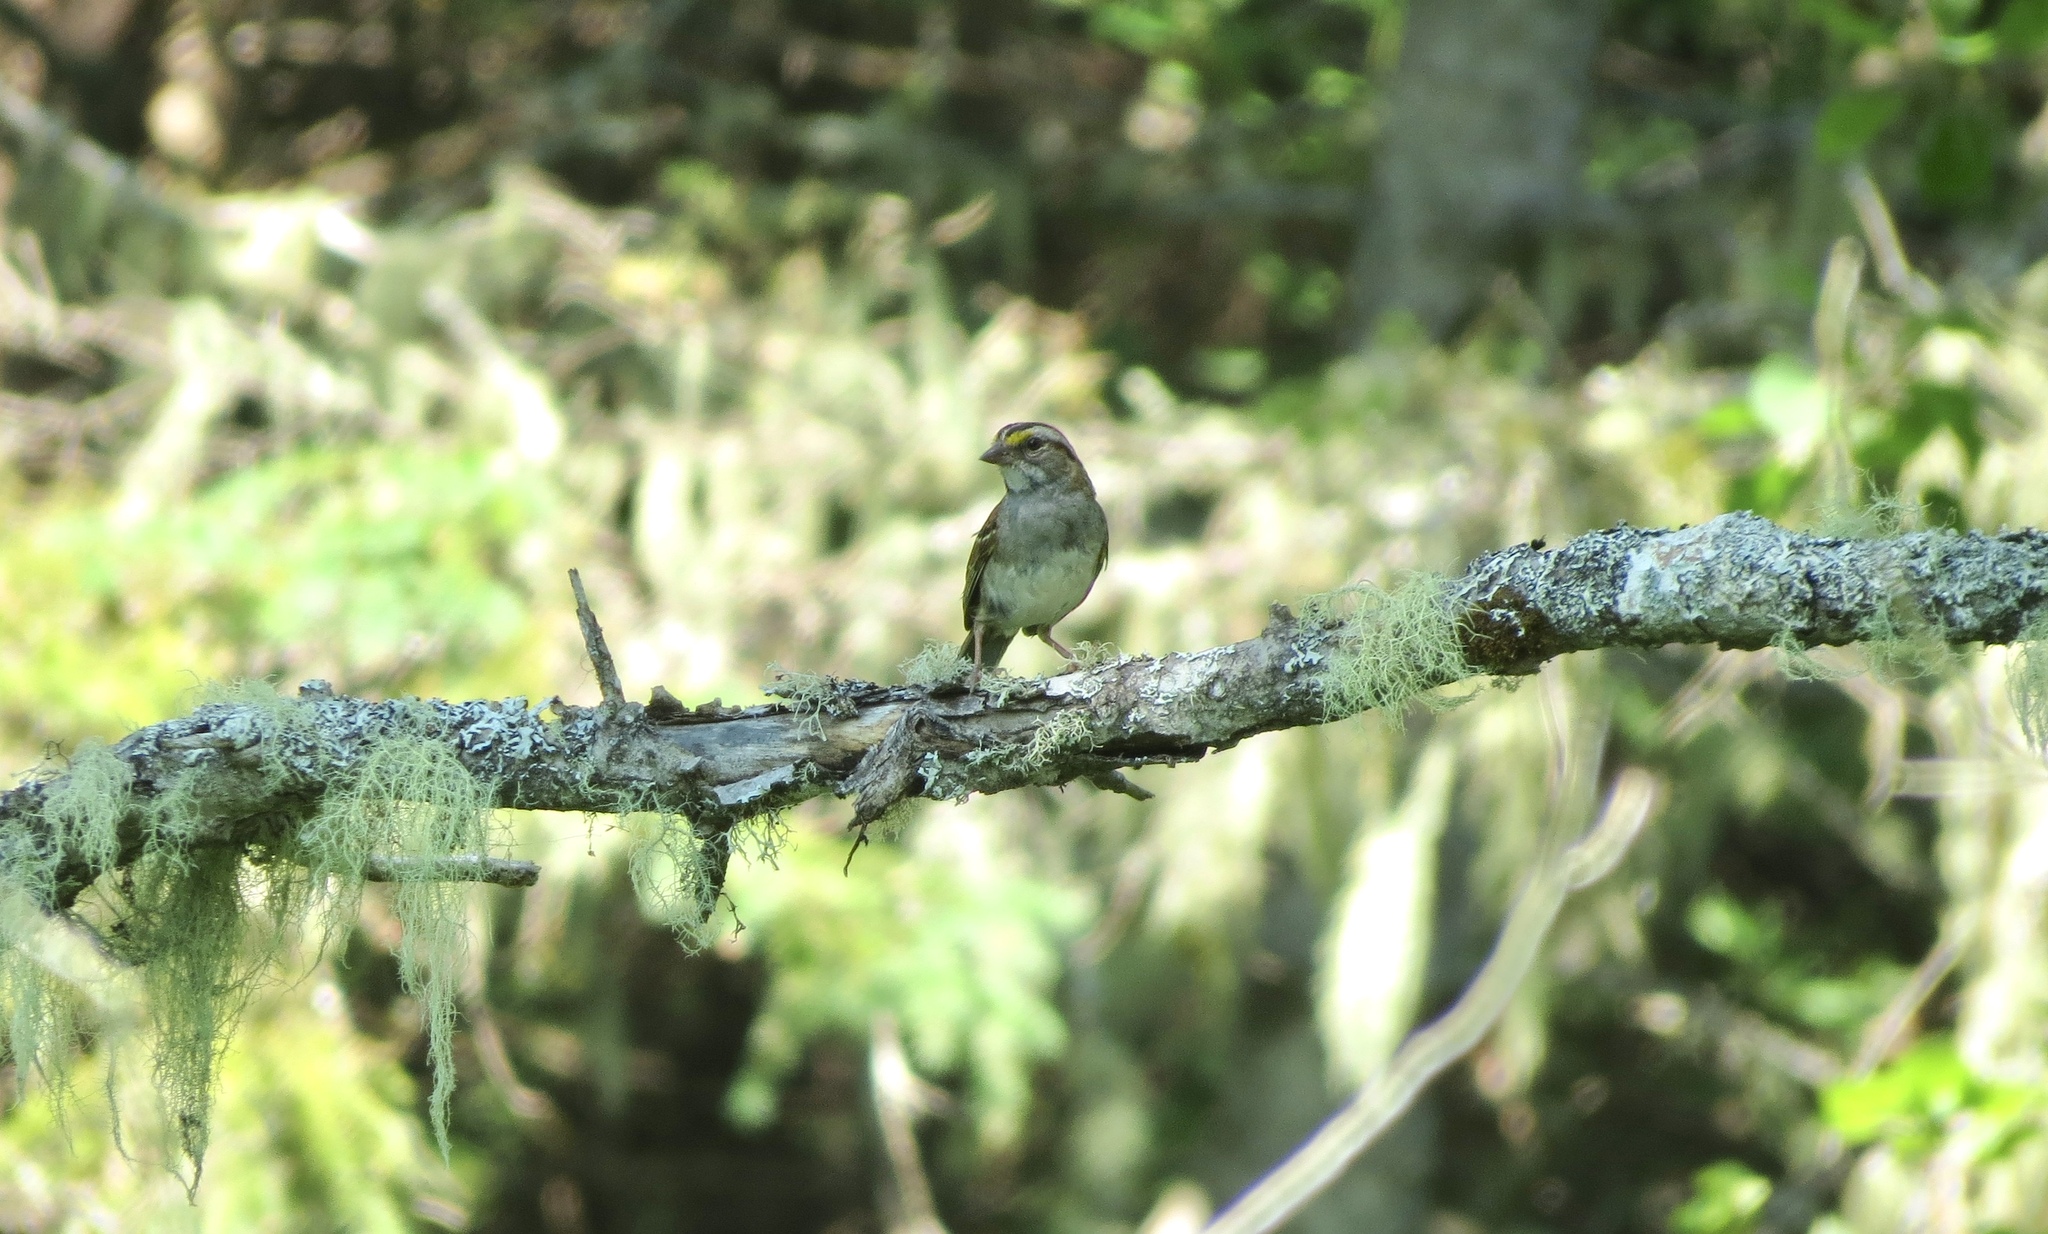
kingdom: Animalia
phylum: Chordata
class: Aves
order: Passeriformes
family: Passerellidae
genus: Zonotrichia
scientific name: Zonotrichia albicollis
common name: White-throated sparrow
